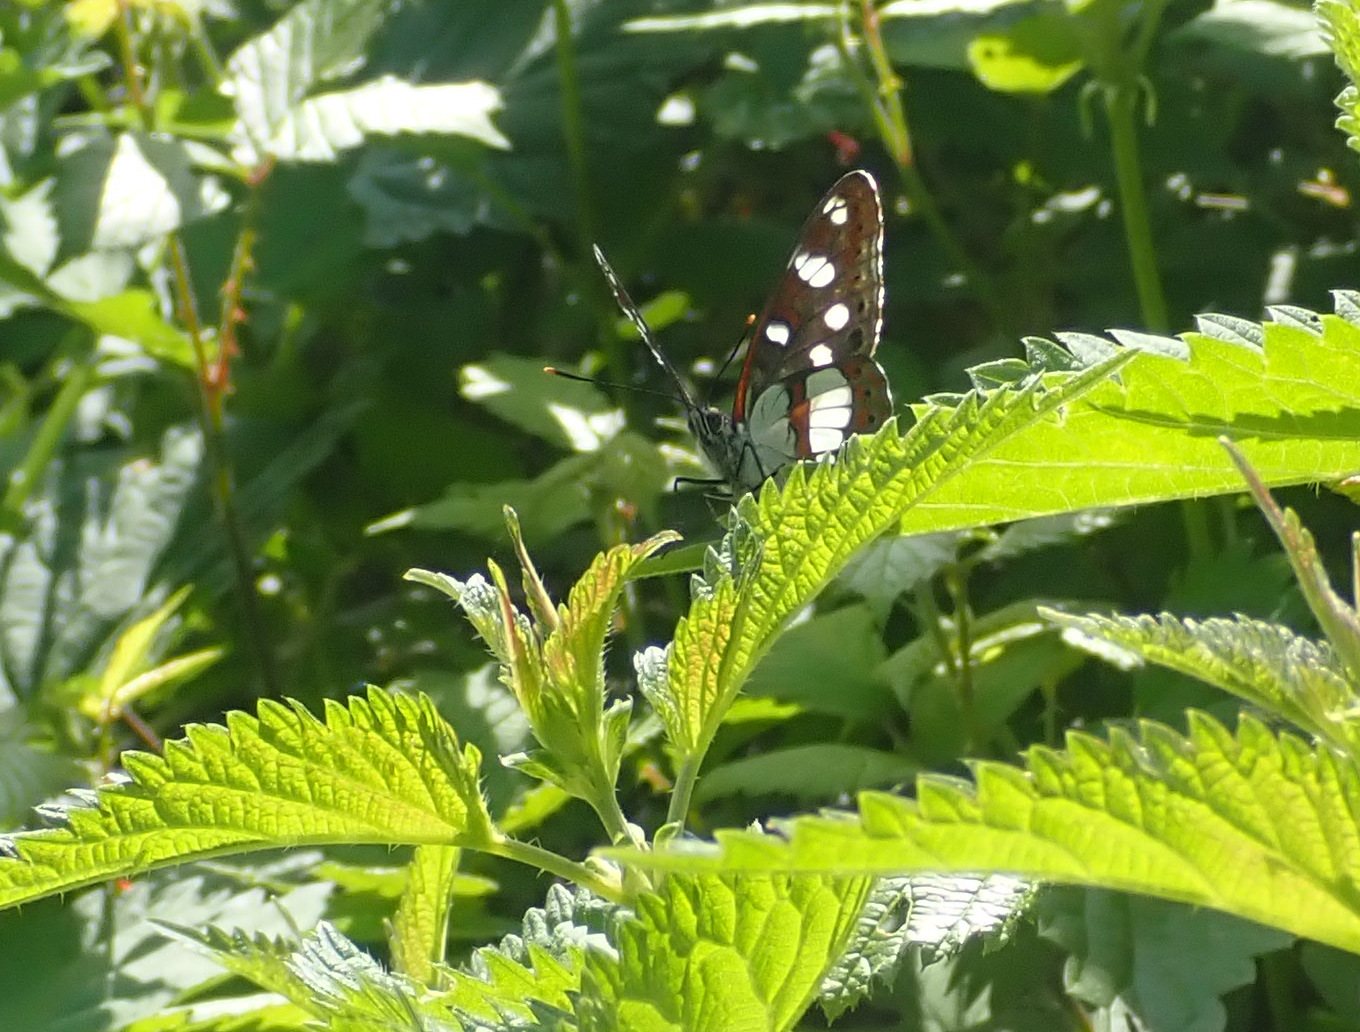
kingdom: Animalia
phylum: Arthropoda
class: Insecta
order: Lepidoptera
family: Nymphalidae
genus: Limenitis
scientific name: Limenitis reducta
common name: Southern white admiral
